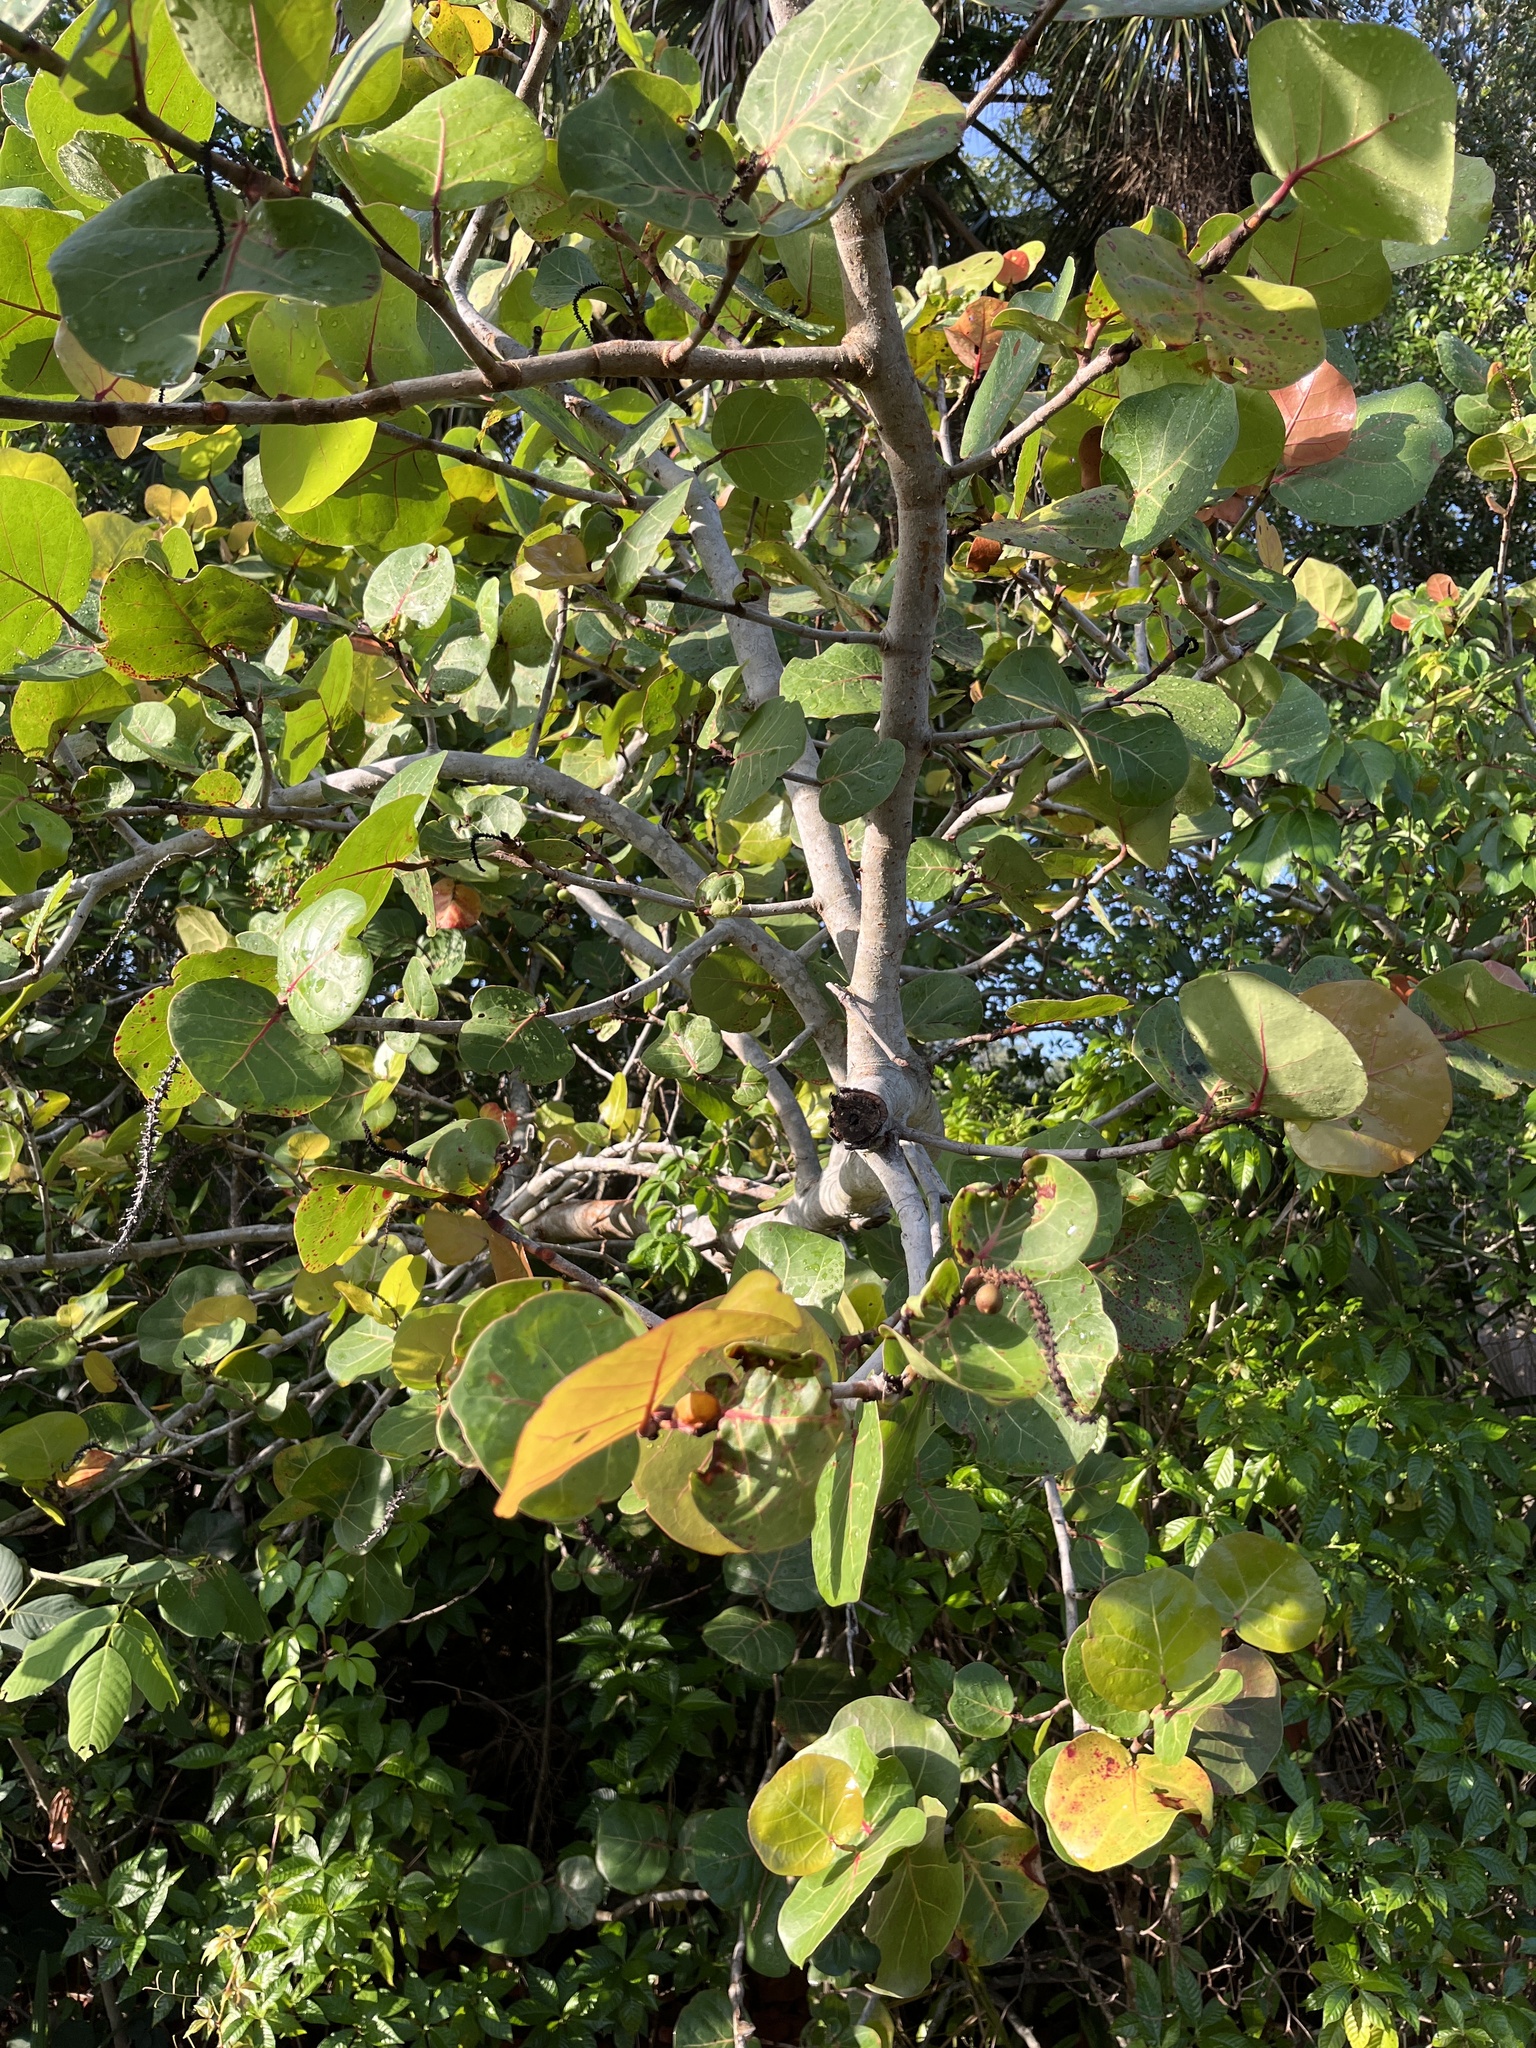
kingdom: Plantae
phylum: Tracheophyta
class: Magnoliopsida
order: Caryophyllales
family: Polygonaceae
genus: Coccoloba
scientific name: Coccoloba uvifera
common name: Seagrape
